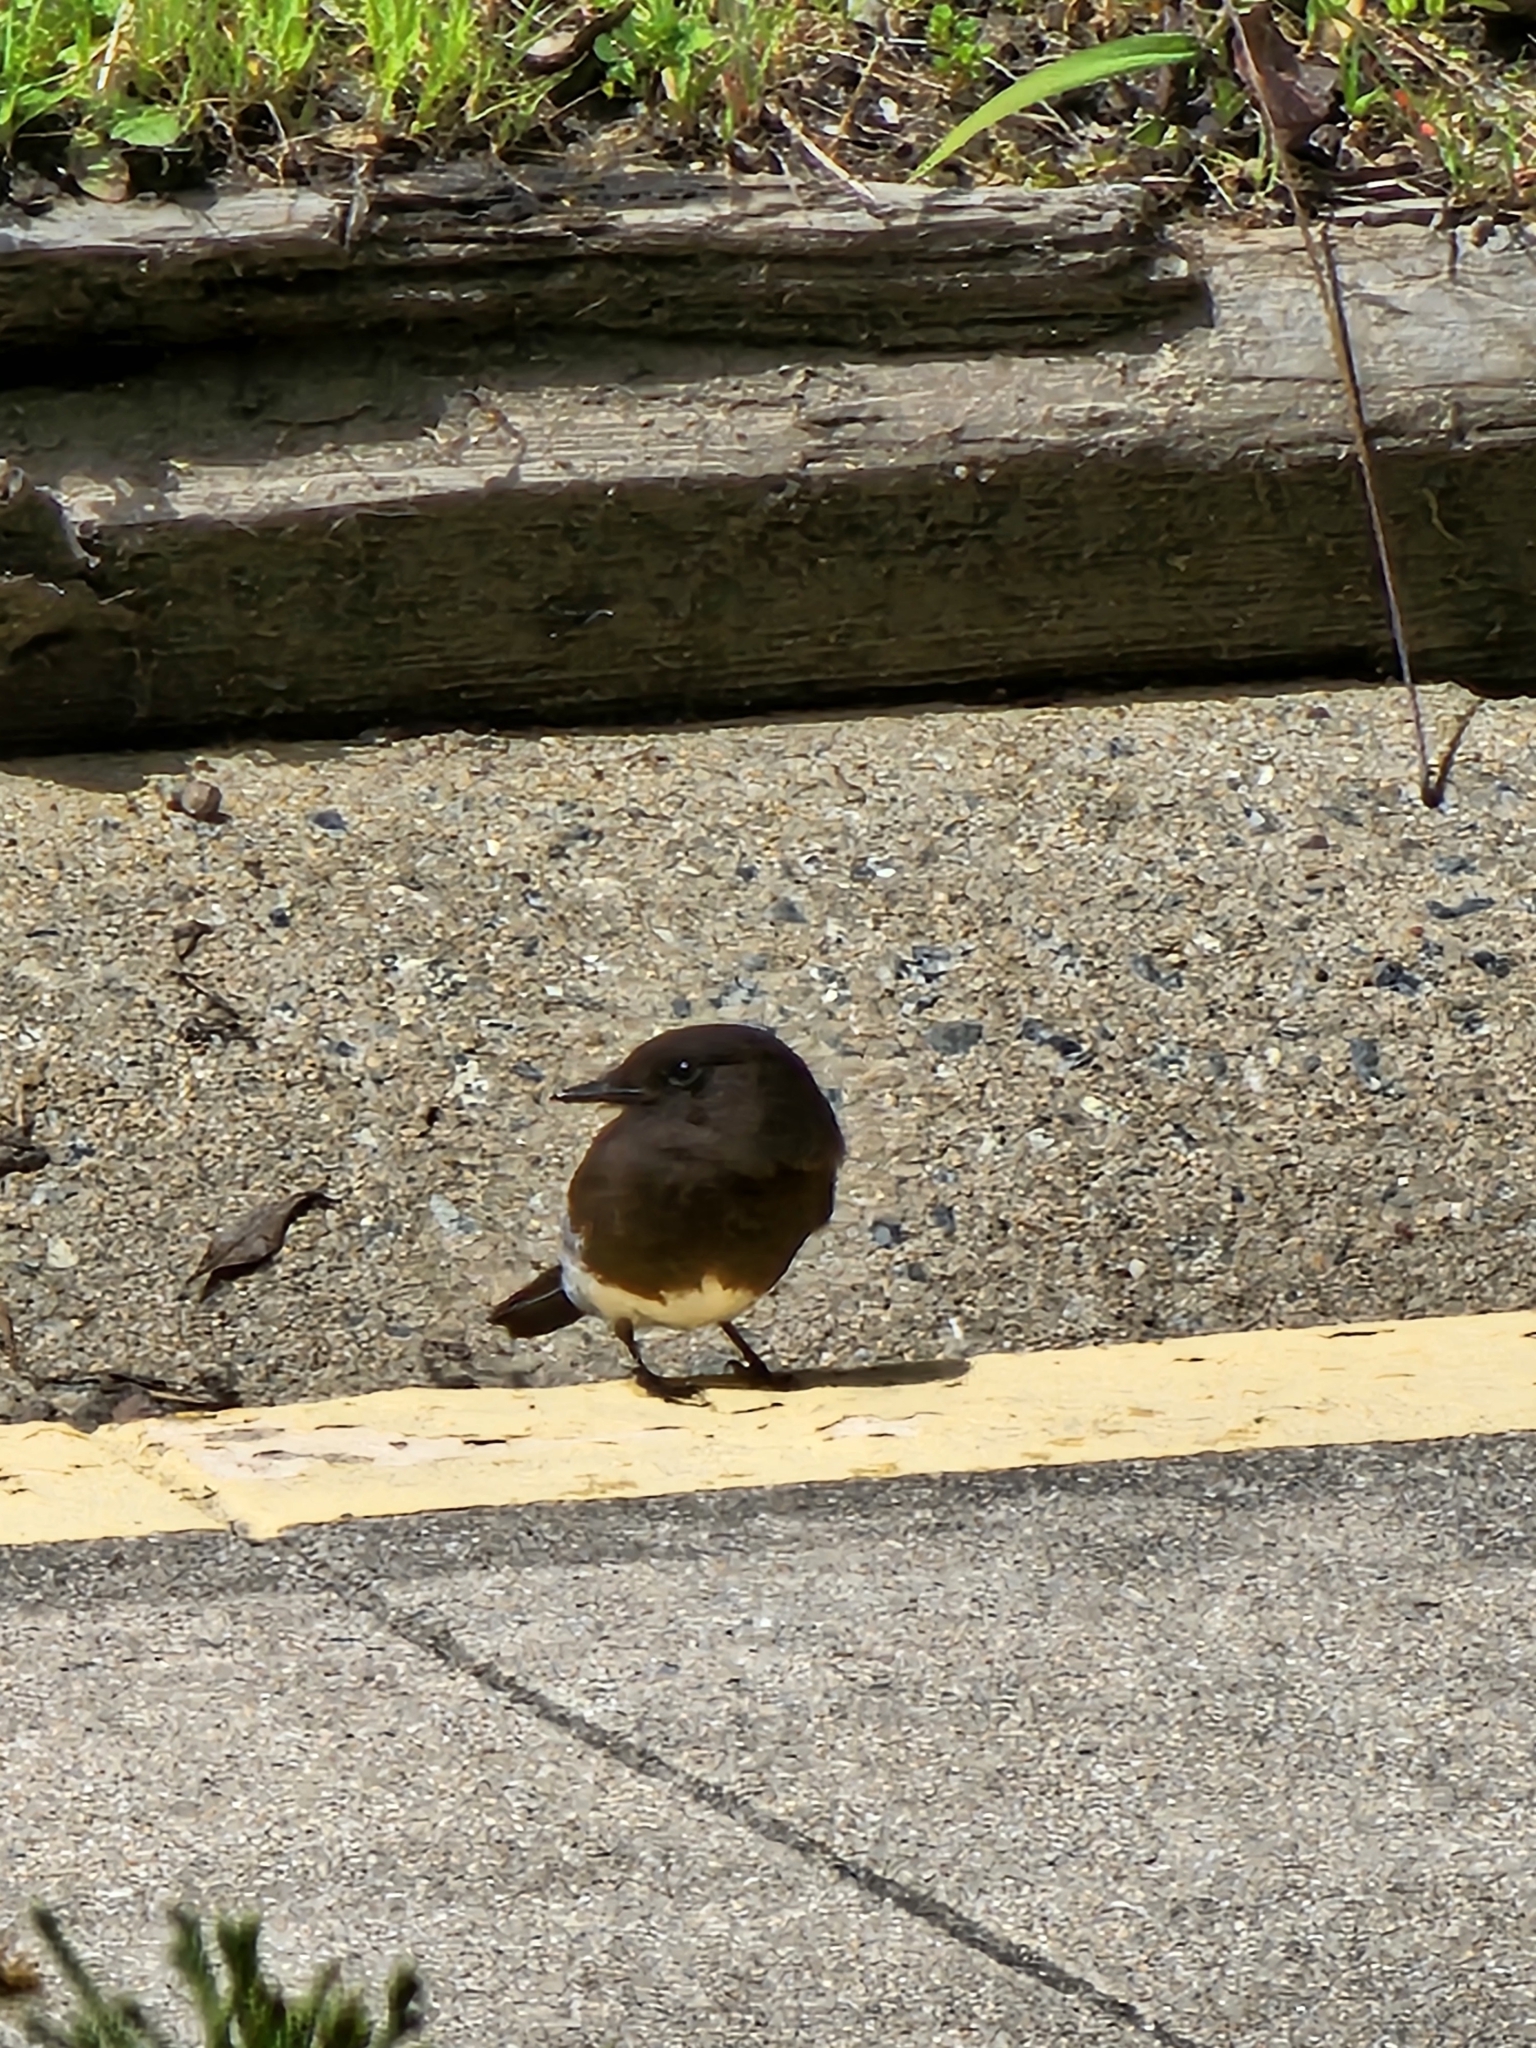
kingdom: Animalia
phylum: Chordata
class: Aves
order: Passeriformes
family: Tyrannidae
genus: Sayornis
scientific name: Sayornis nigricans
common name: Black phoebe
